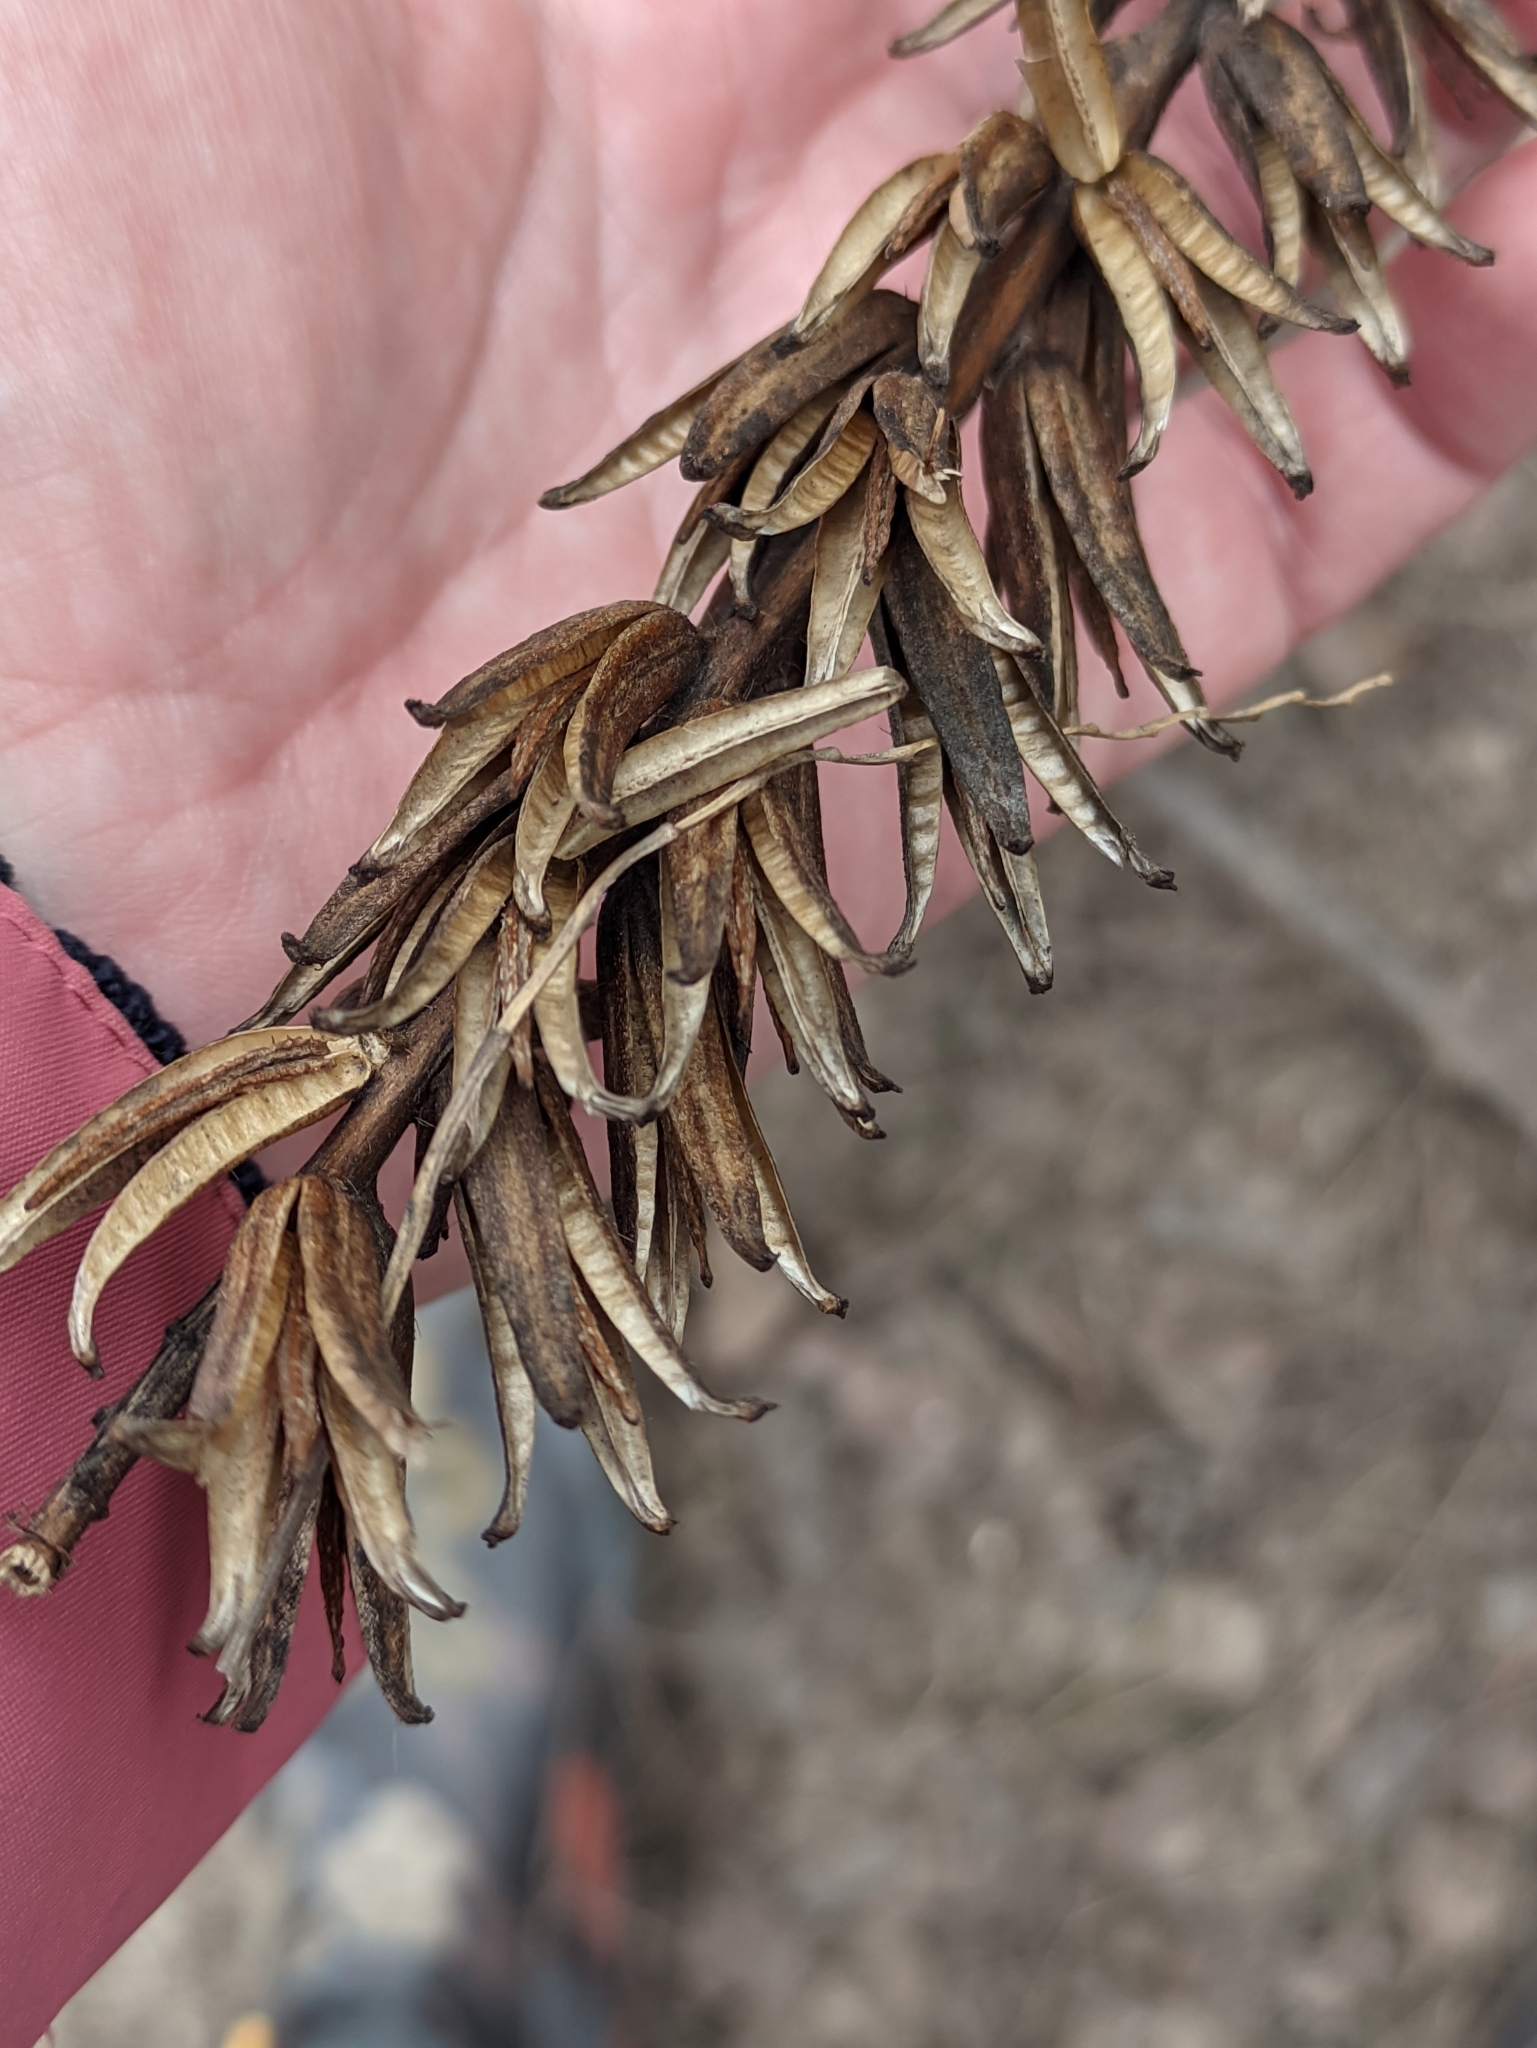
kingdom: Plantae
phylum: Tracheophyta
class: Magnoliopsida
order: Myrtales
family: Onagraceae
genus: Oenothera
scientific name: Oenothera
